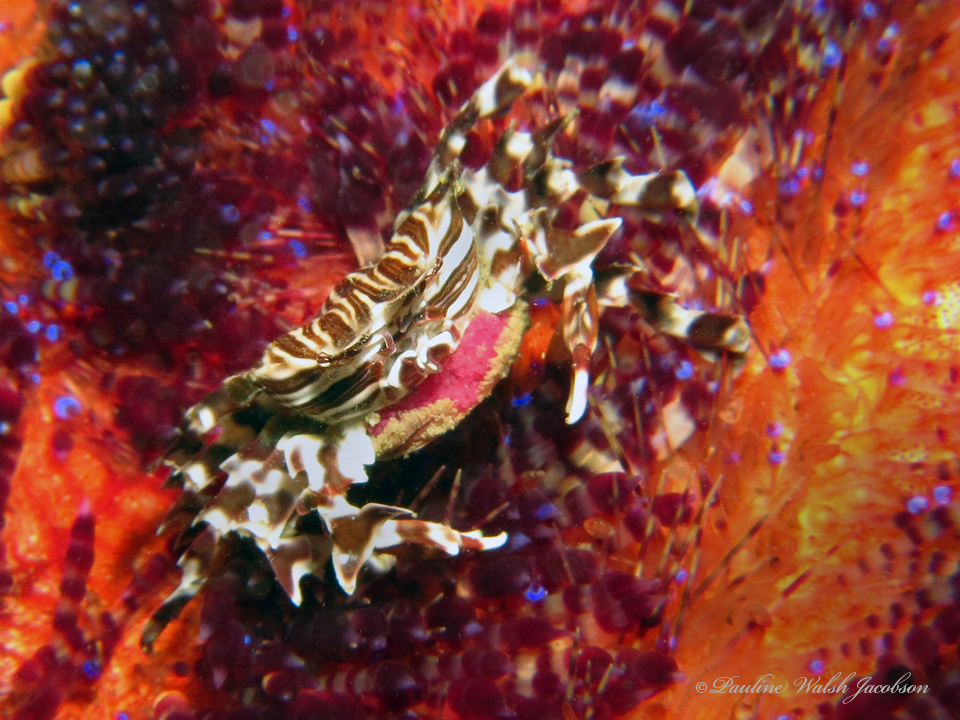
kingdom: Animalia
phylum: Arthropoda
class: Malacostraca
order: Decapoda
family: Pilumnidae
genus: Zebrida
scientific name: Zebrida adamsii
